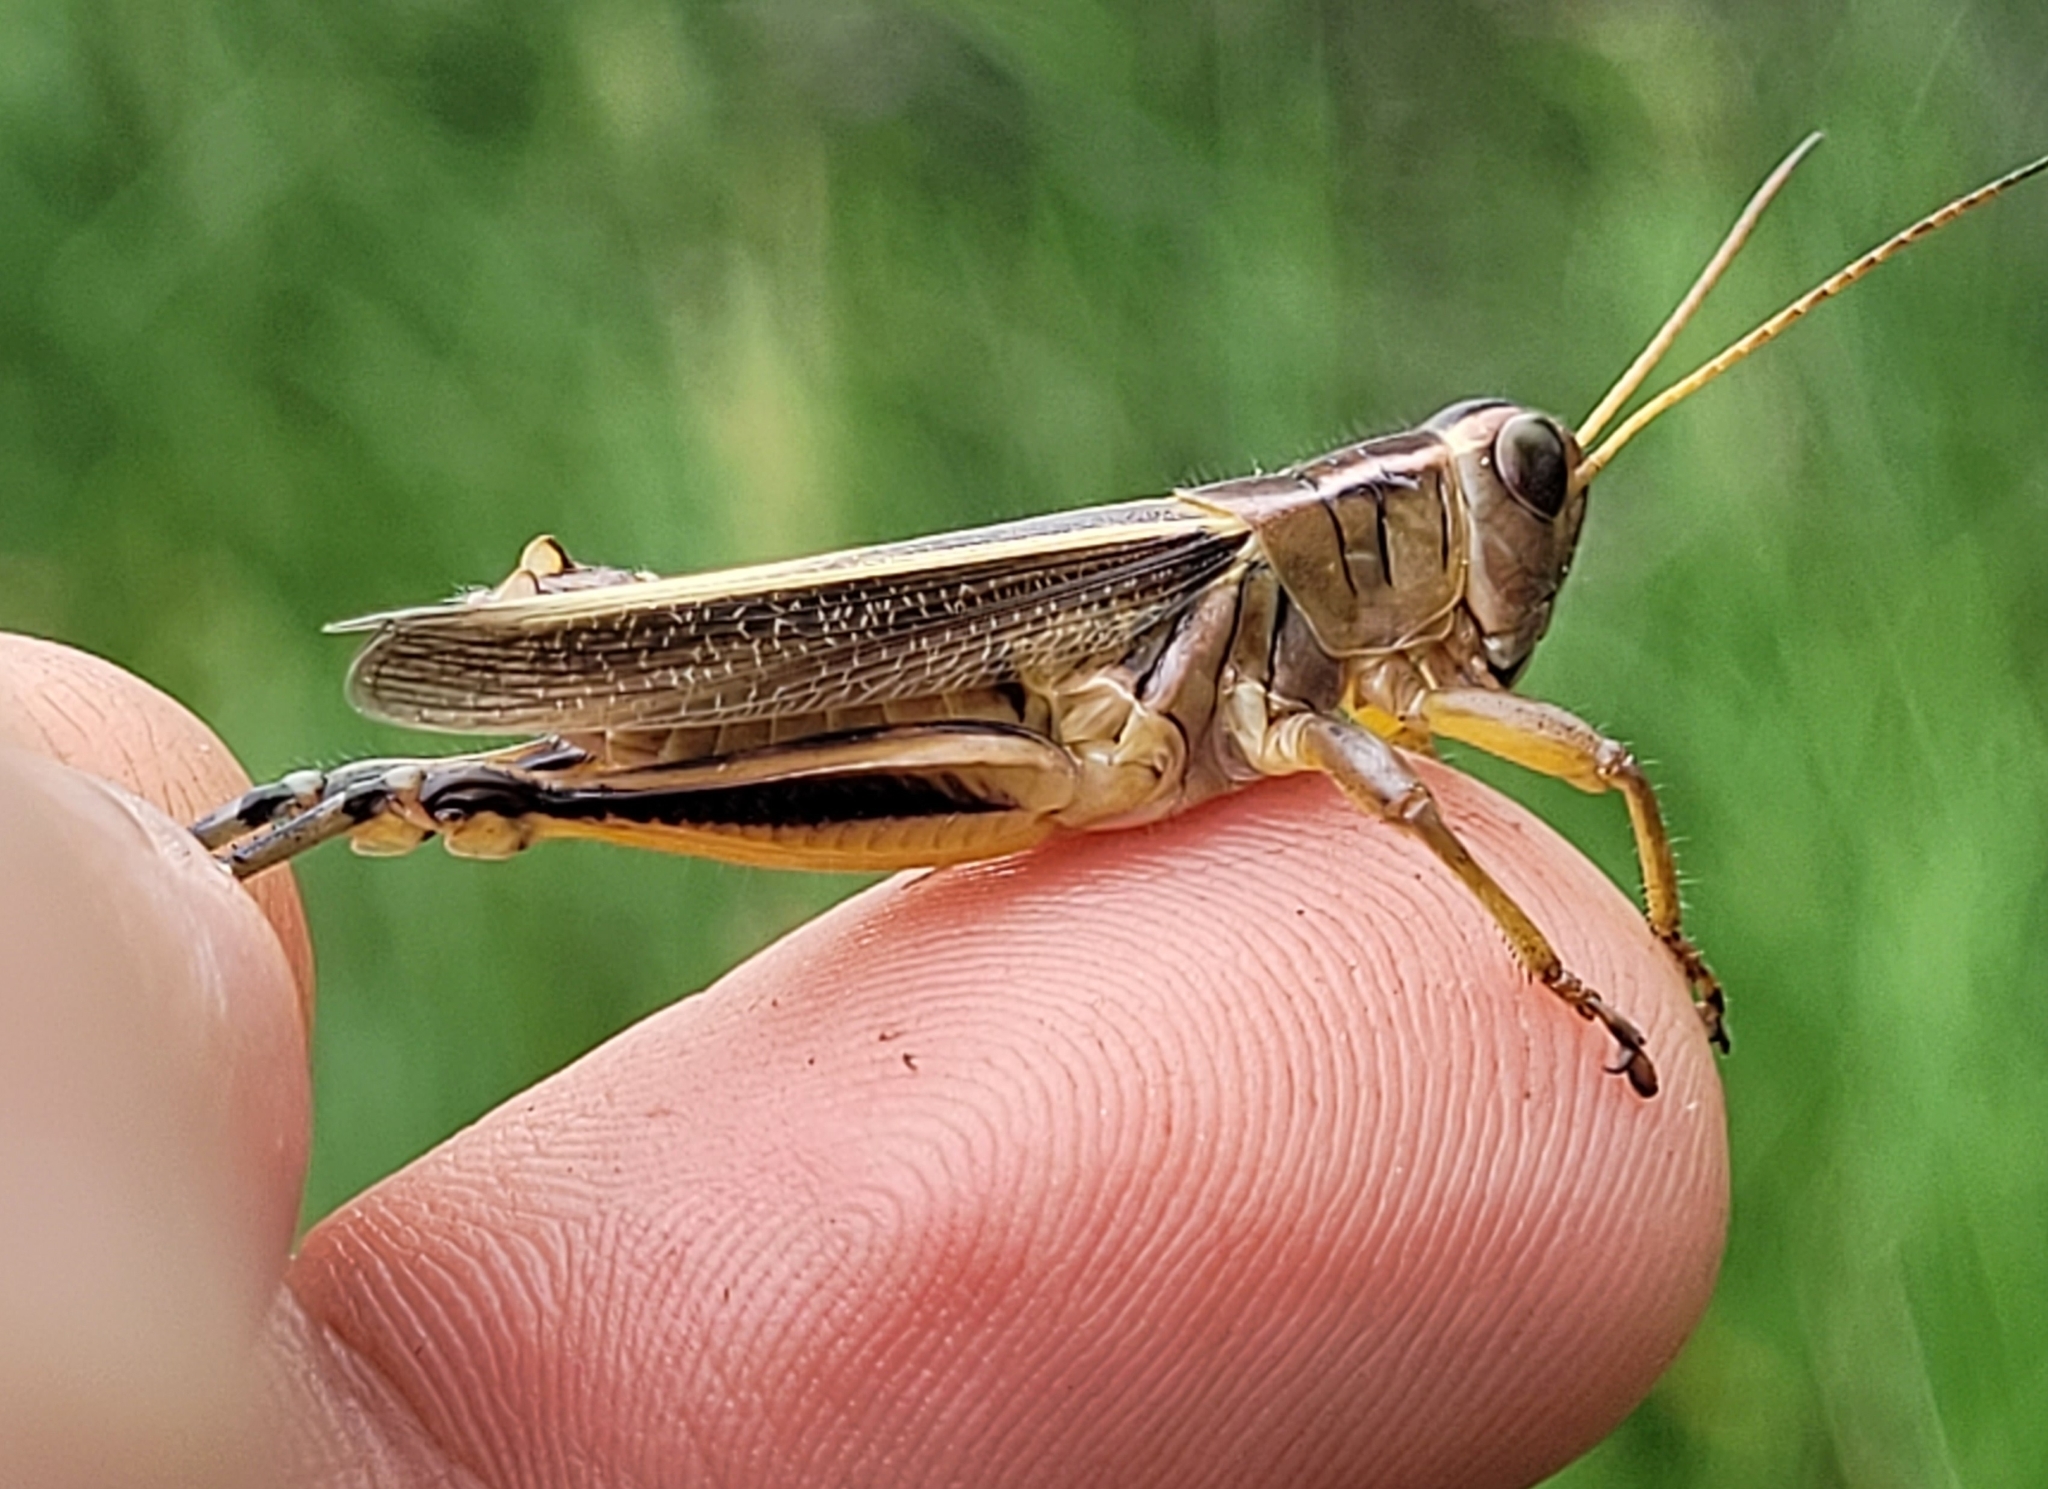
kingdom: Animalia
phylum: Arthropoda
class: Insecta
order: Orthoptera
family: Acrididae
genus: Melanoplus
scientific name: Melanoplus bivittatus
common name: Two-striped grasshopper
